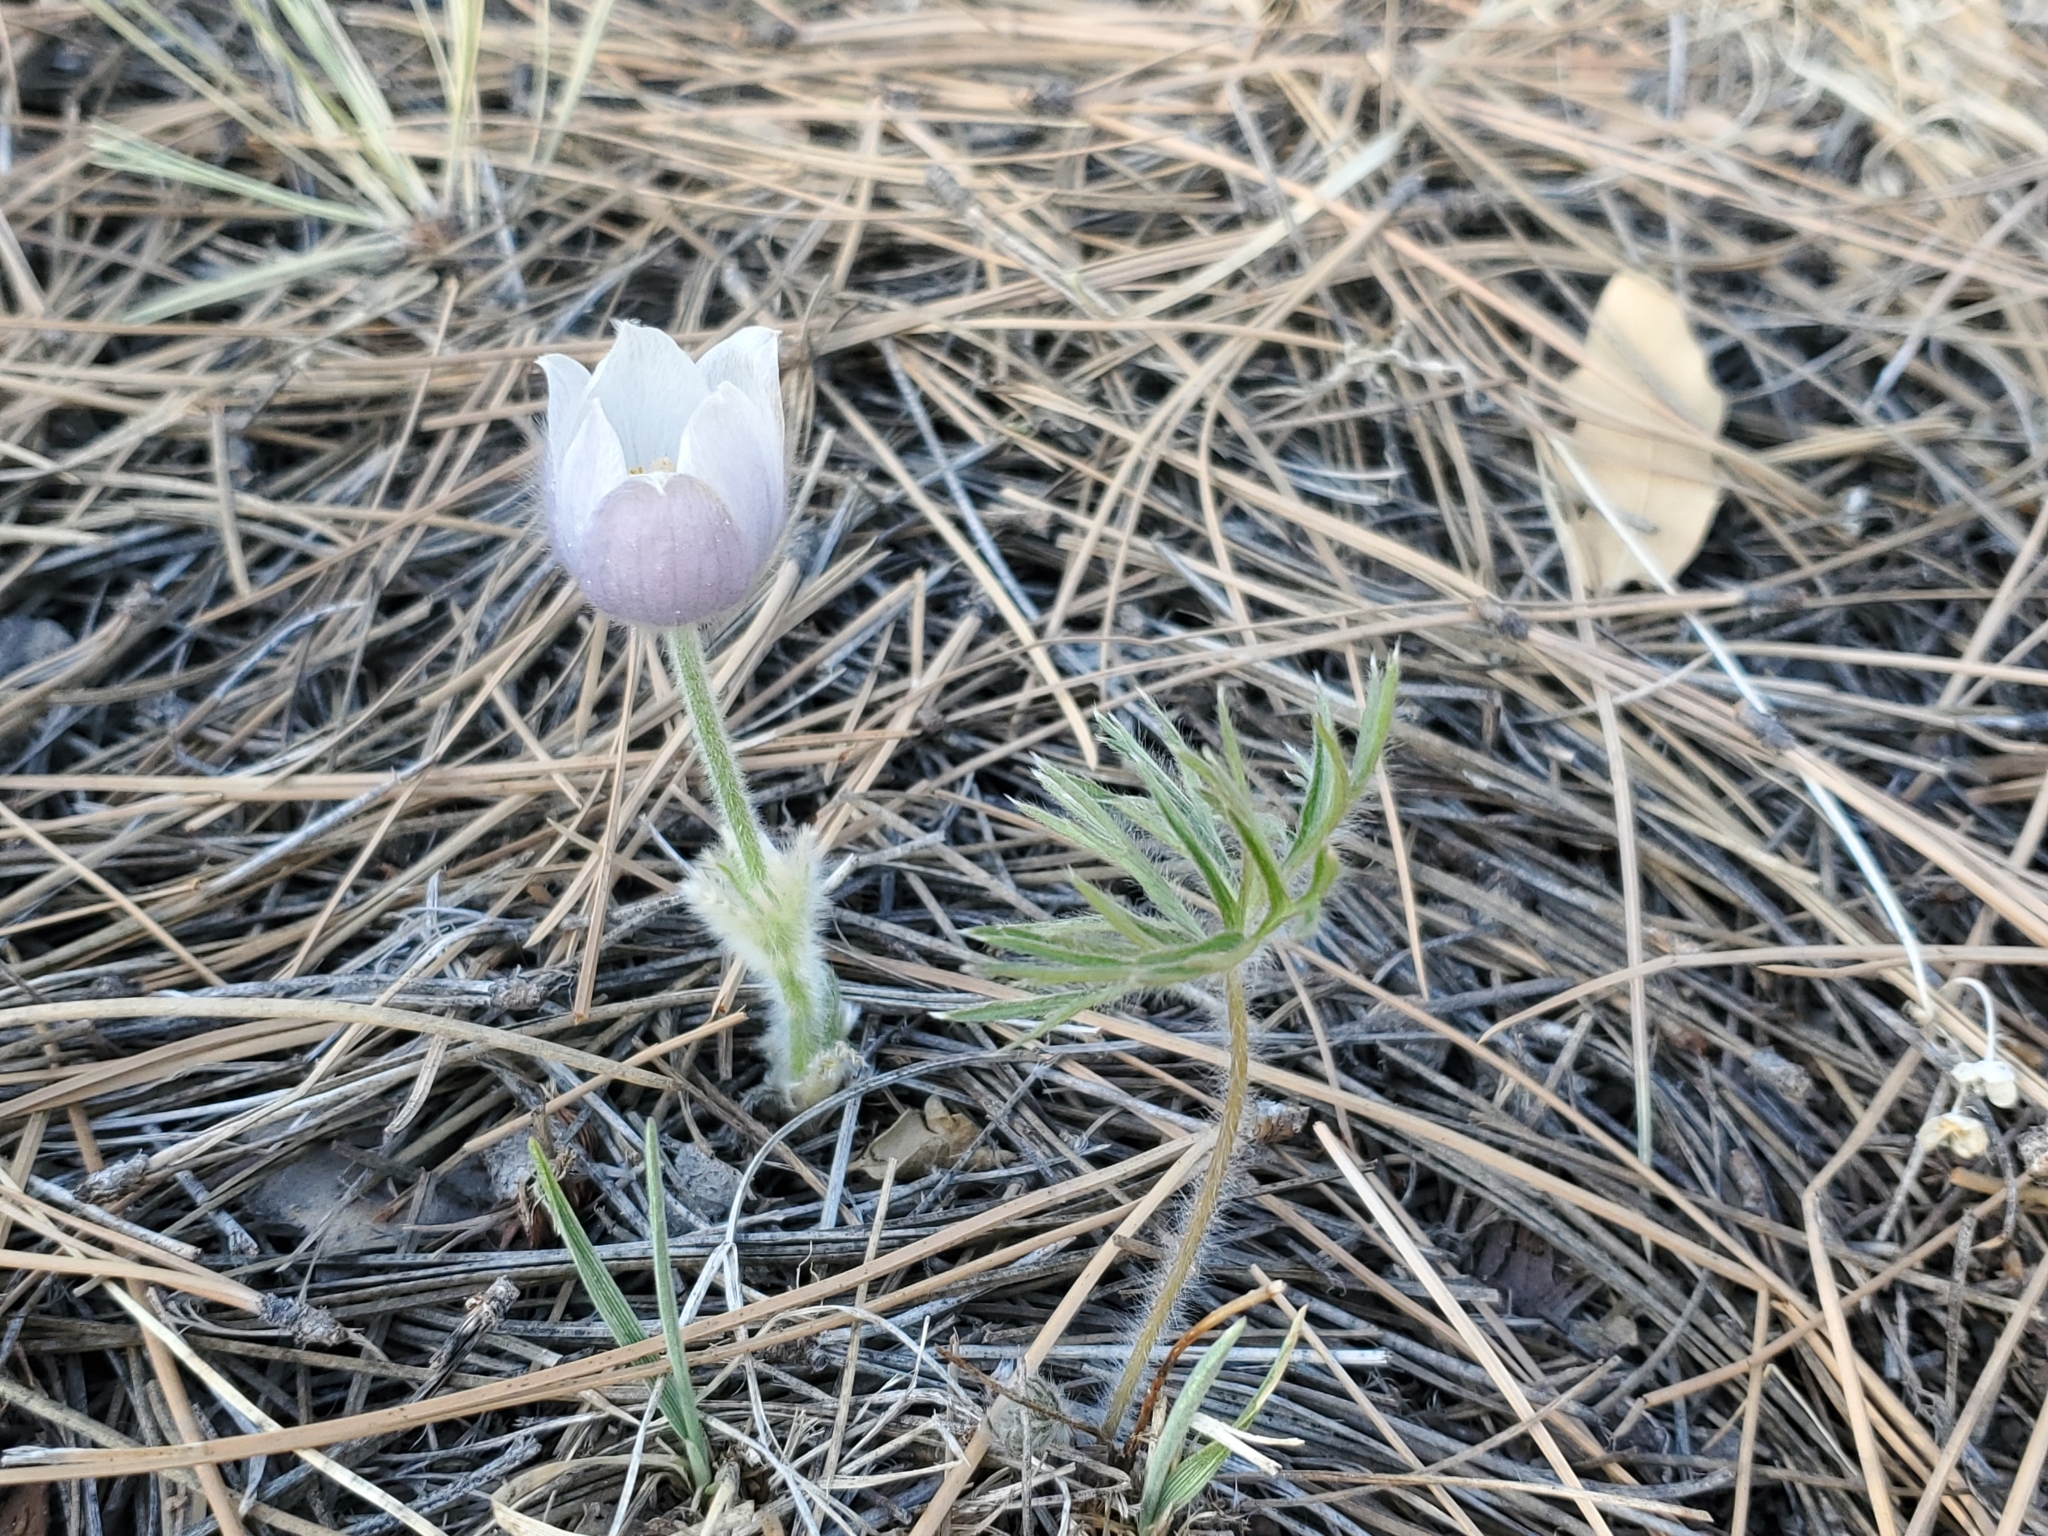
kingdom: Plantae
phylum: Tracheophyta
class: Magnoliopsida
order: Ranunculales
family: Ranunculaceae
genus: Pulsatilla
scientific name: Pulsatilla nuttalliana
